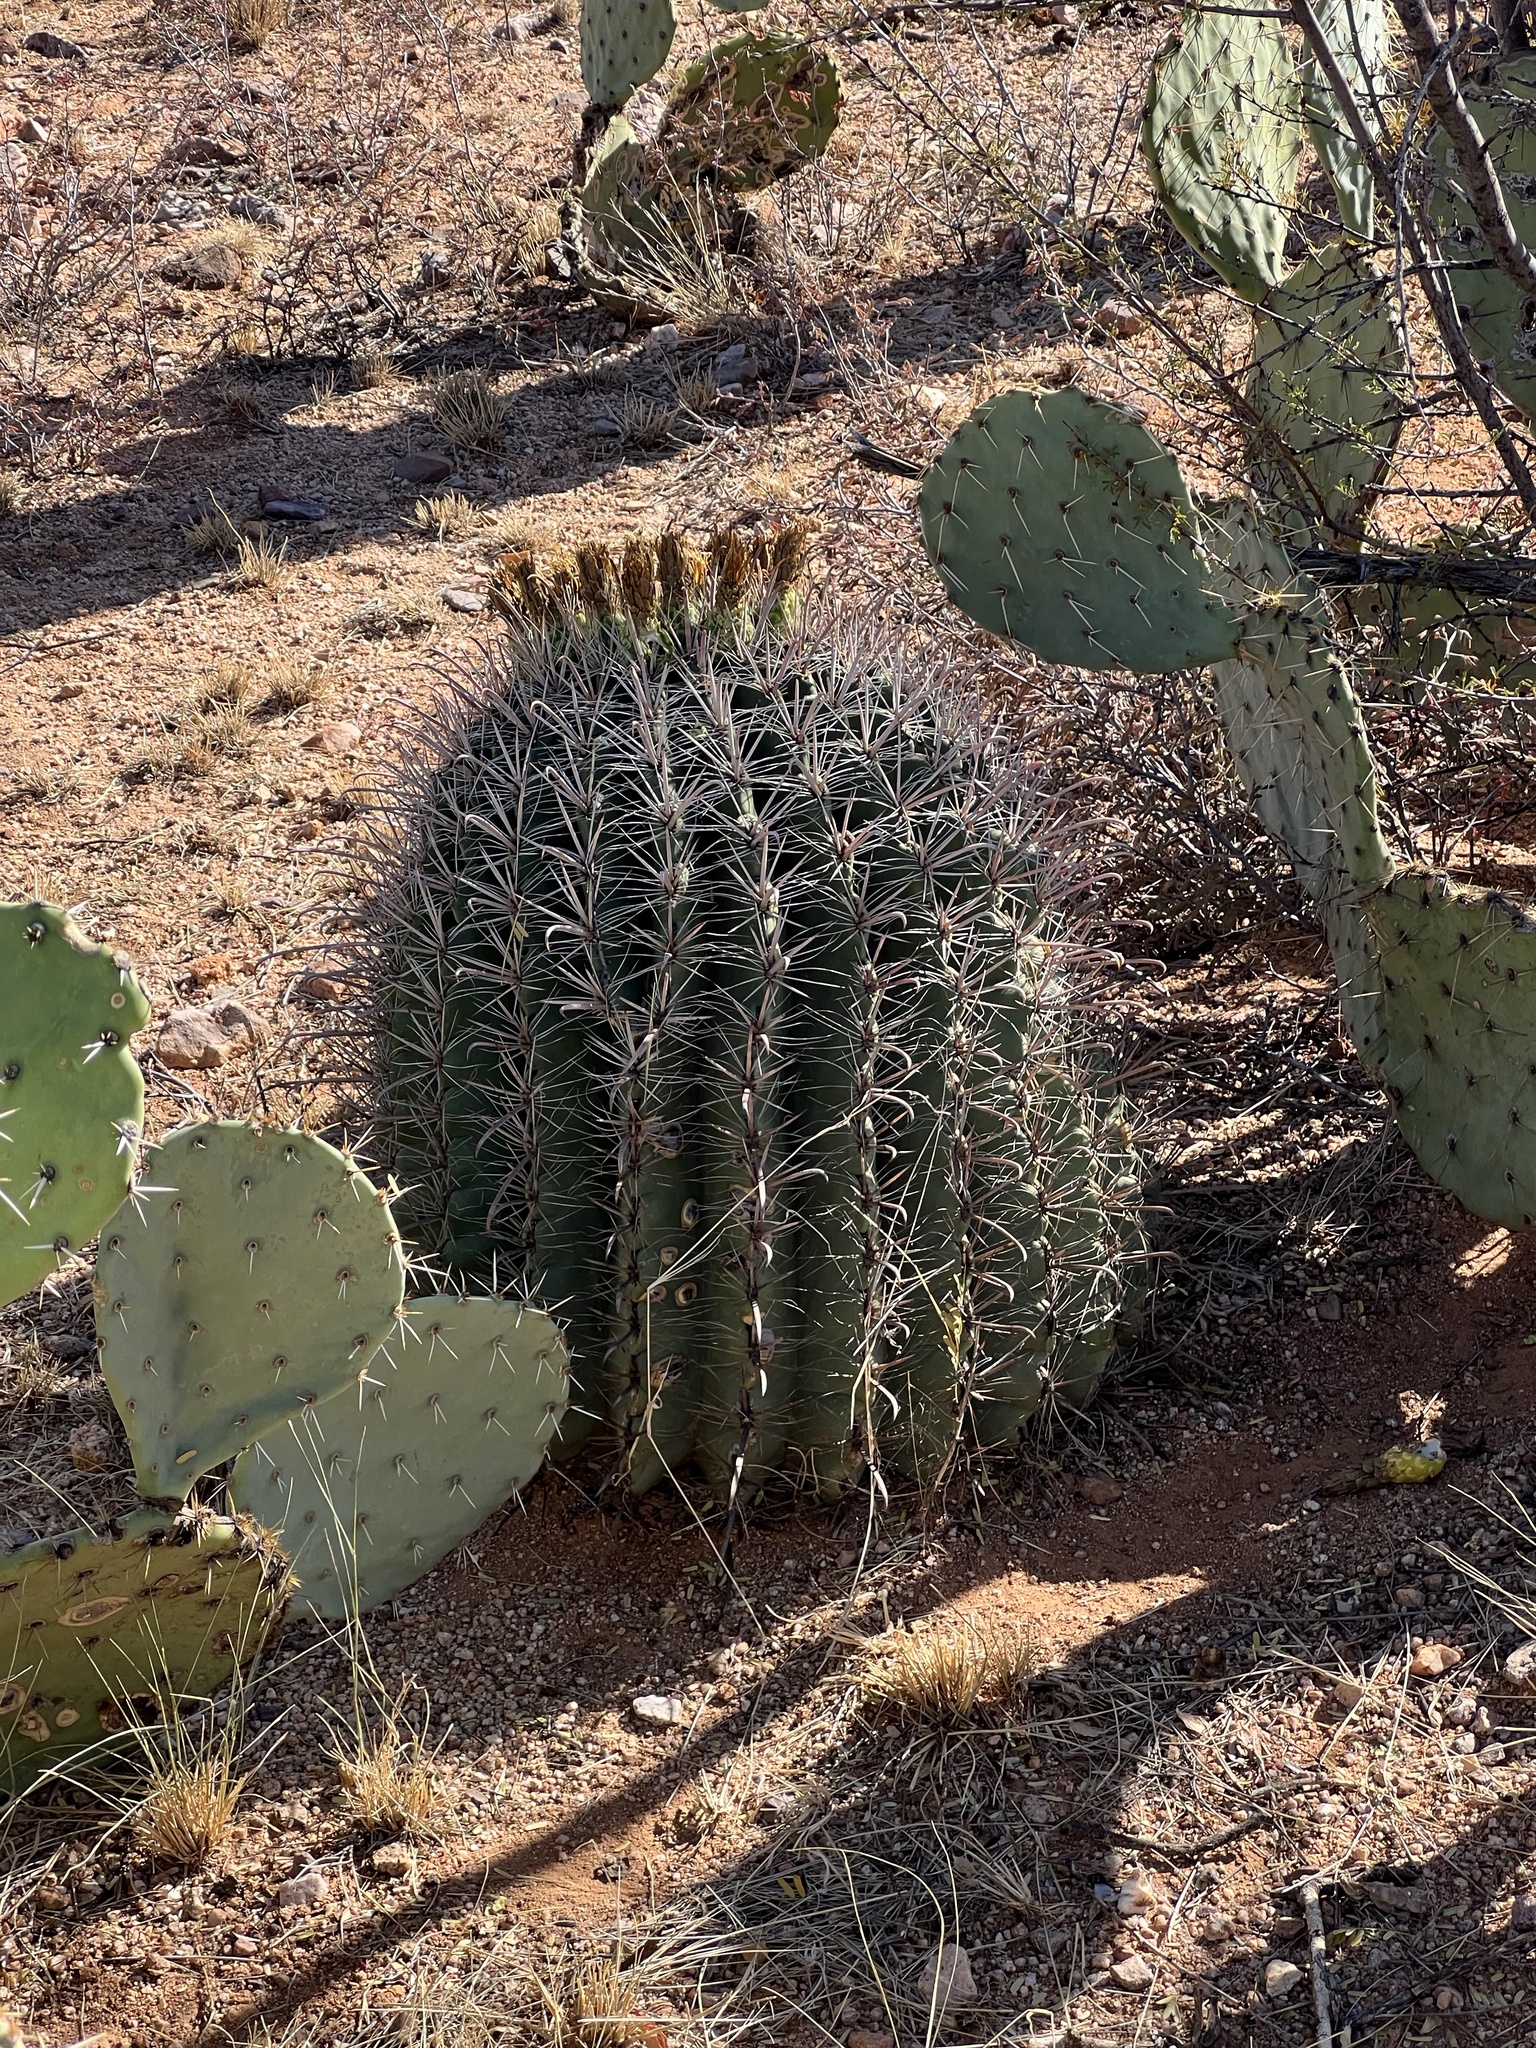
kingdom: Plantae
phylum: Tracheophyta
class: Magnoliopsida
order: Caryophyllales
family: Cactaceae
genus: Ferocactus
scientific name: Ferocactus wislizeni
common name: Candy barrel cactus
